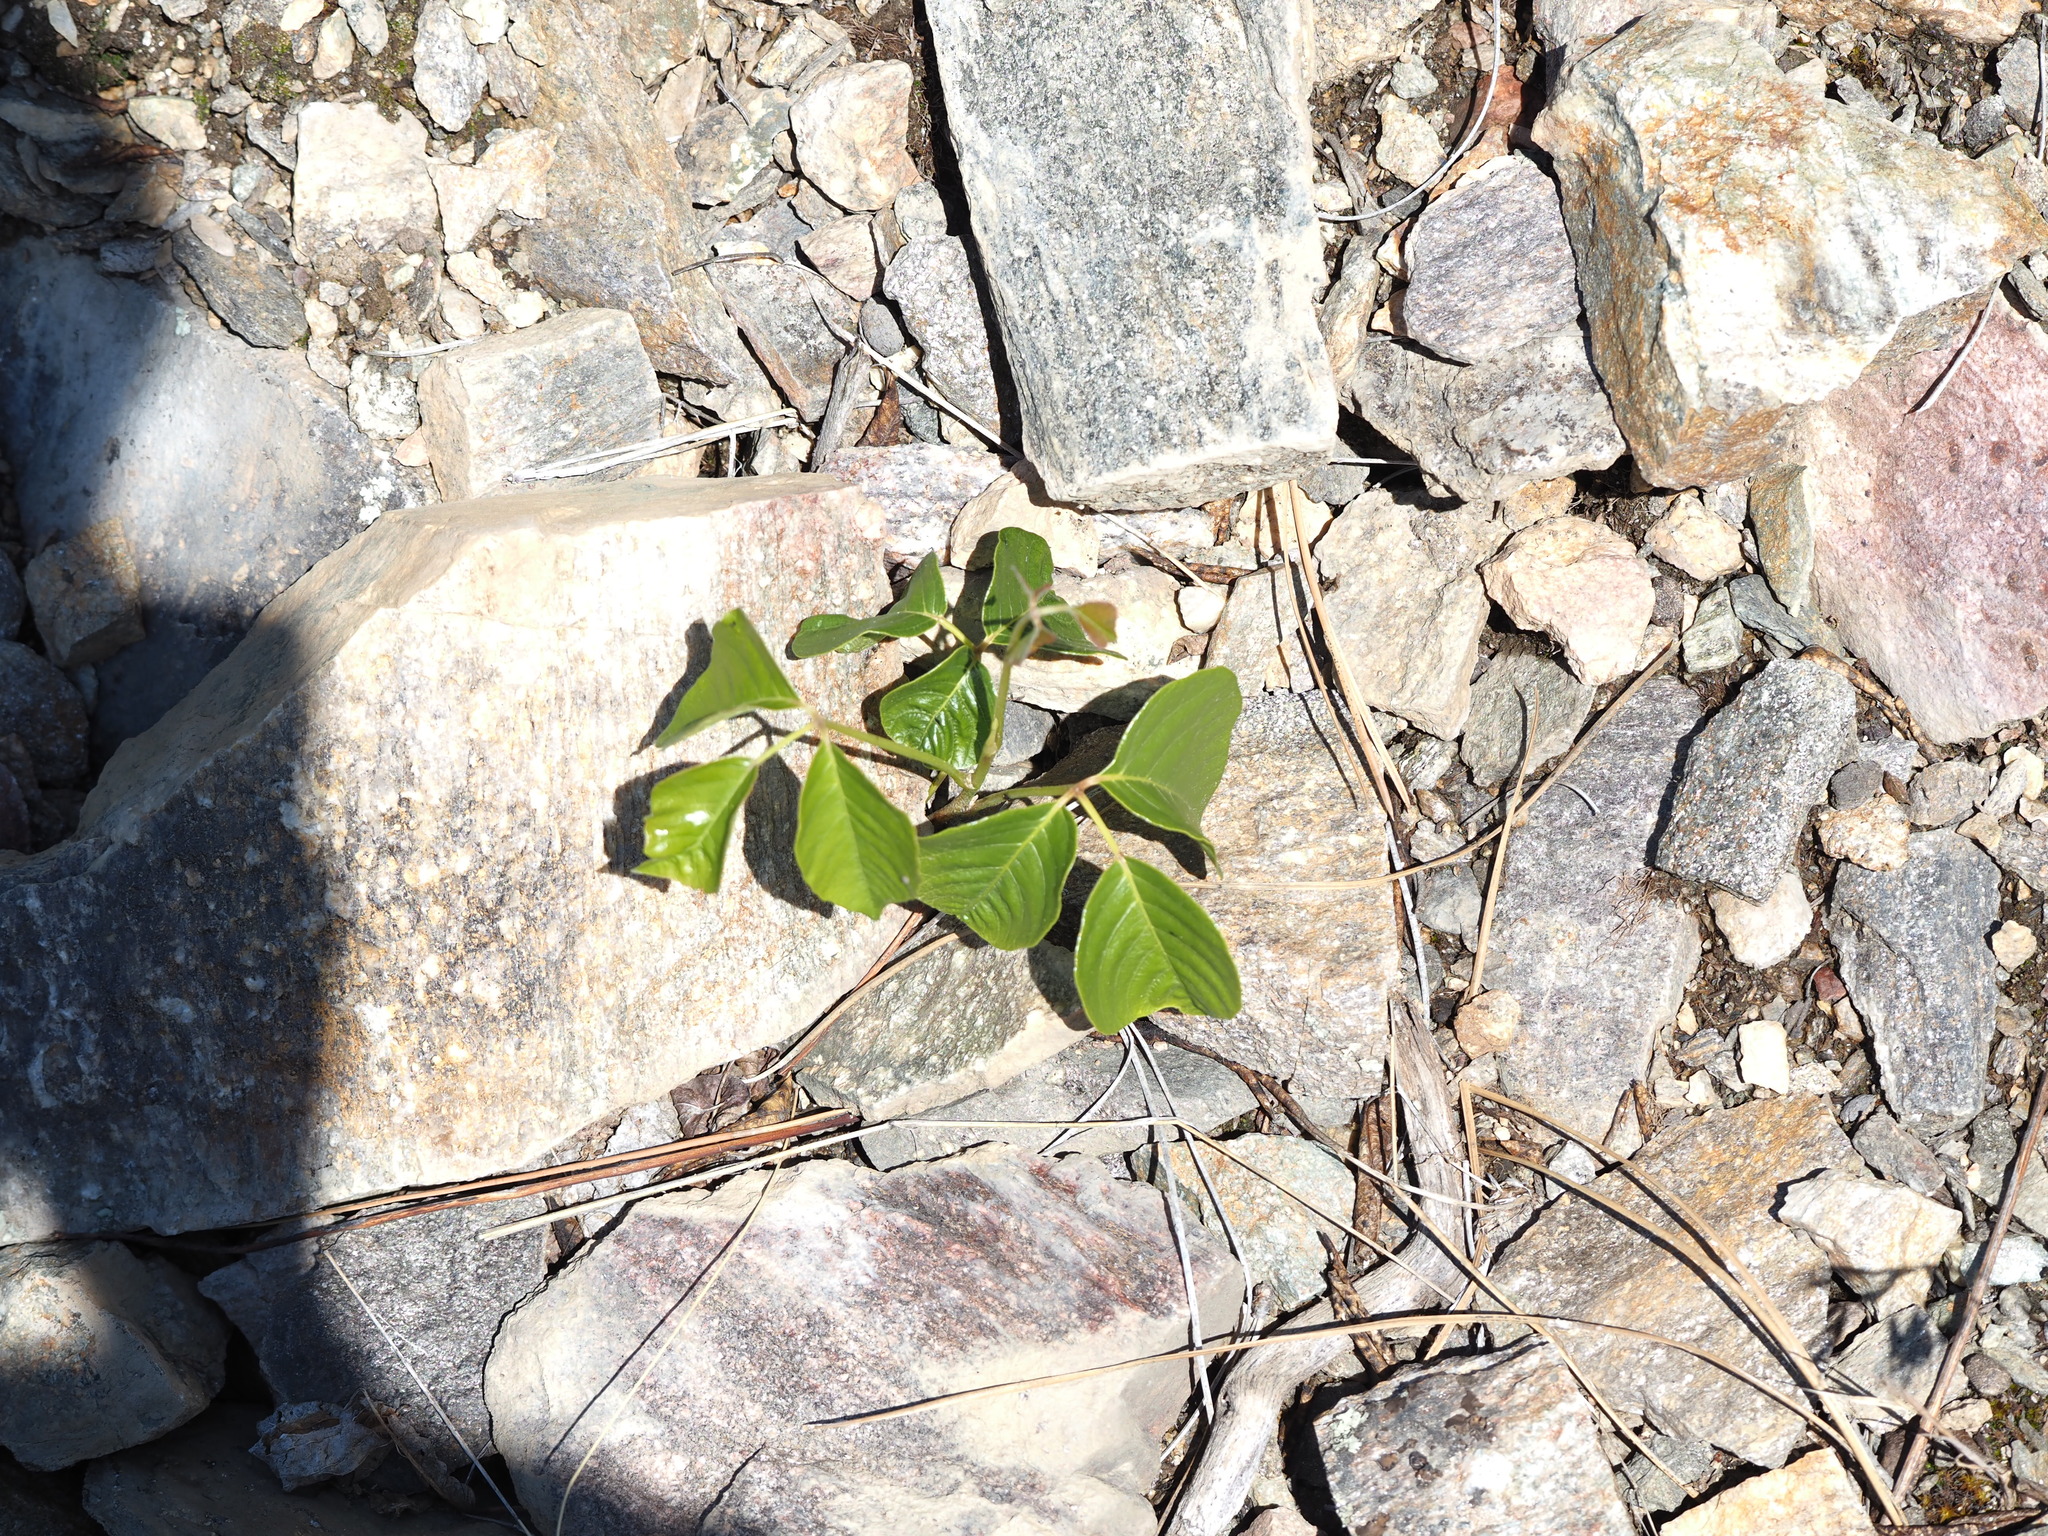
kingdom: Plantae
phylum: Tracheophyta
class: Magnoliopsida
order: Sapindales
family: Anacardiaceae
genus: Toxicodendron
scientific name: Toxicodendron rydbergii
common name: Rydberg's poison-ivy
